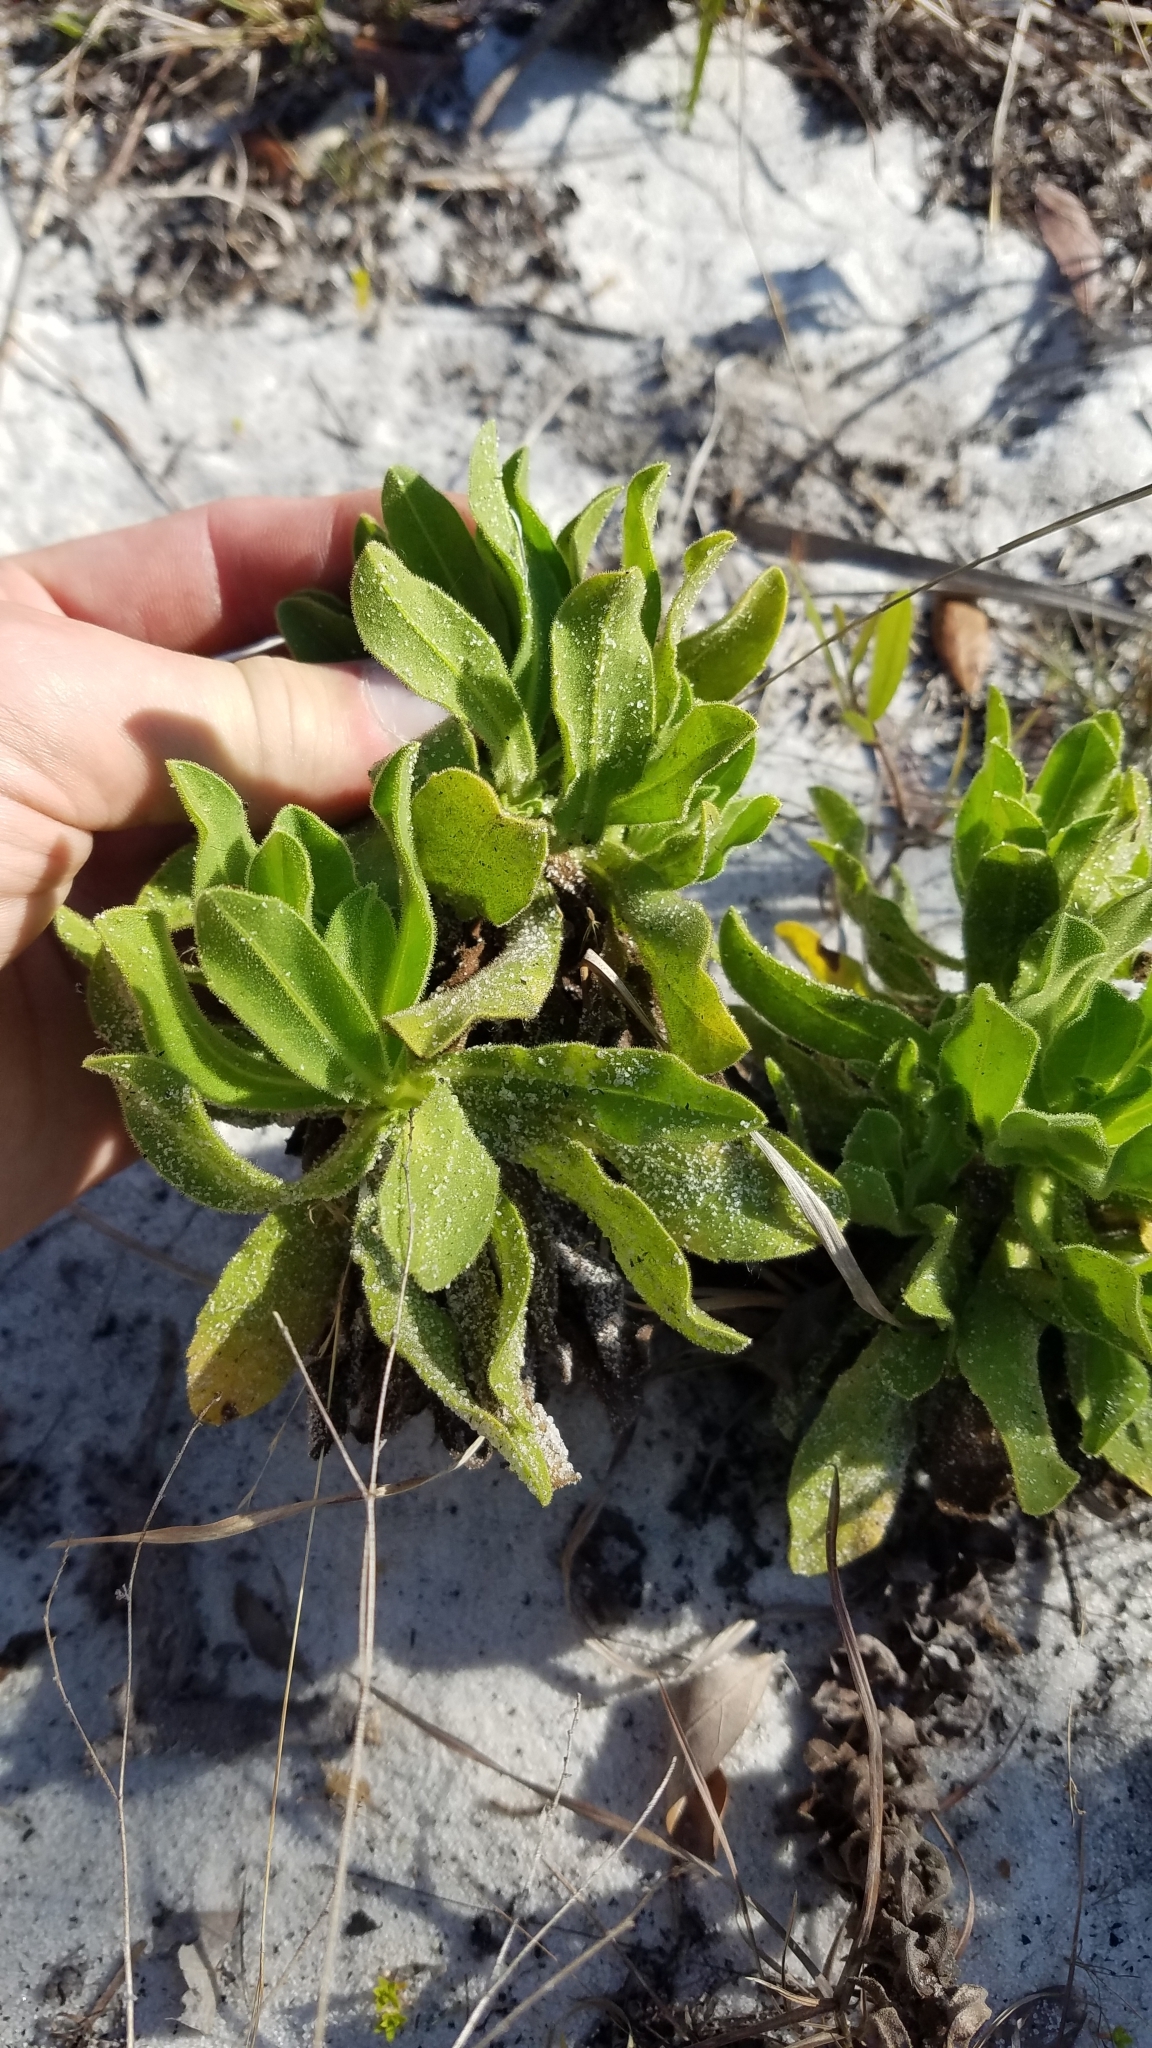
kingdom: Plantae
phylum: Tracheophyta
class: Magnoliopsida
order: Asterales
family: Asteraceae
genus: Chrysopsis
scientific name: Chrysopsis delaneyi
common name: Delaney's goldenaster
